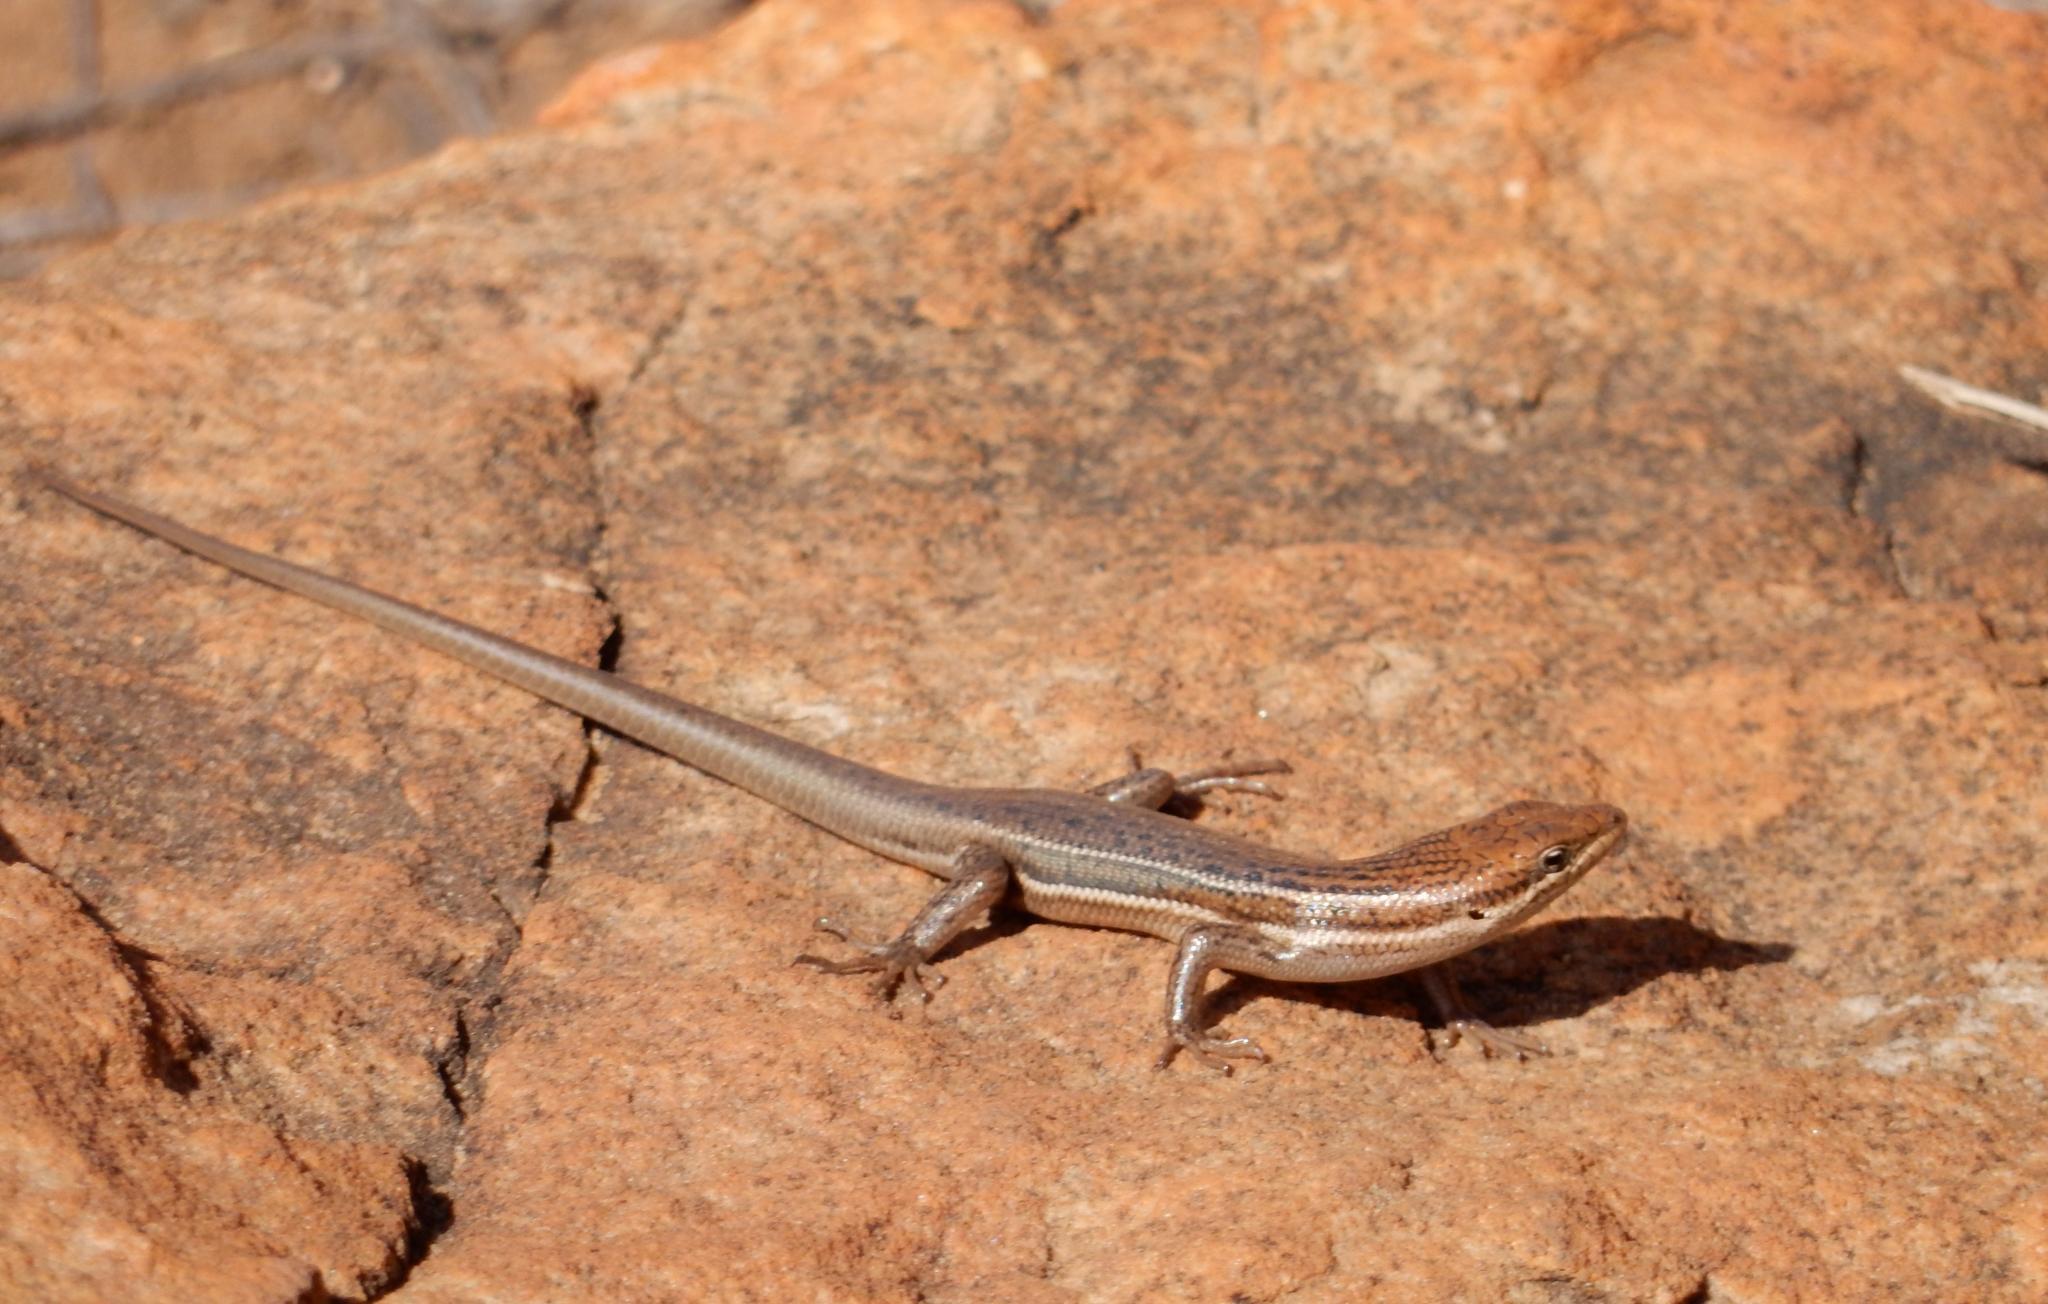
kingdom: Animalia
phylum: Chordata
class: Squamata
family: Scincidae
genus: Trachylepis
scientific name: Trachylepis varia
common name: Eastern variable skink
